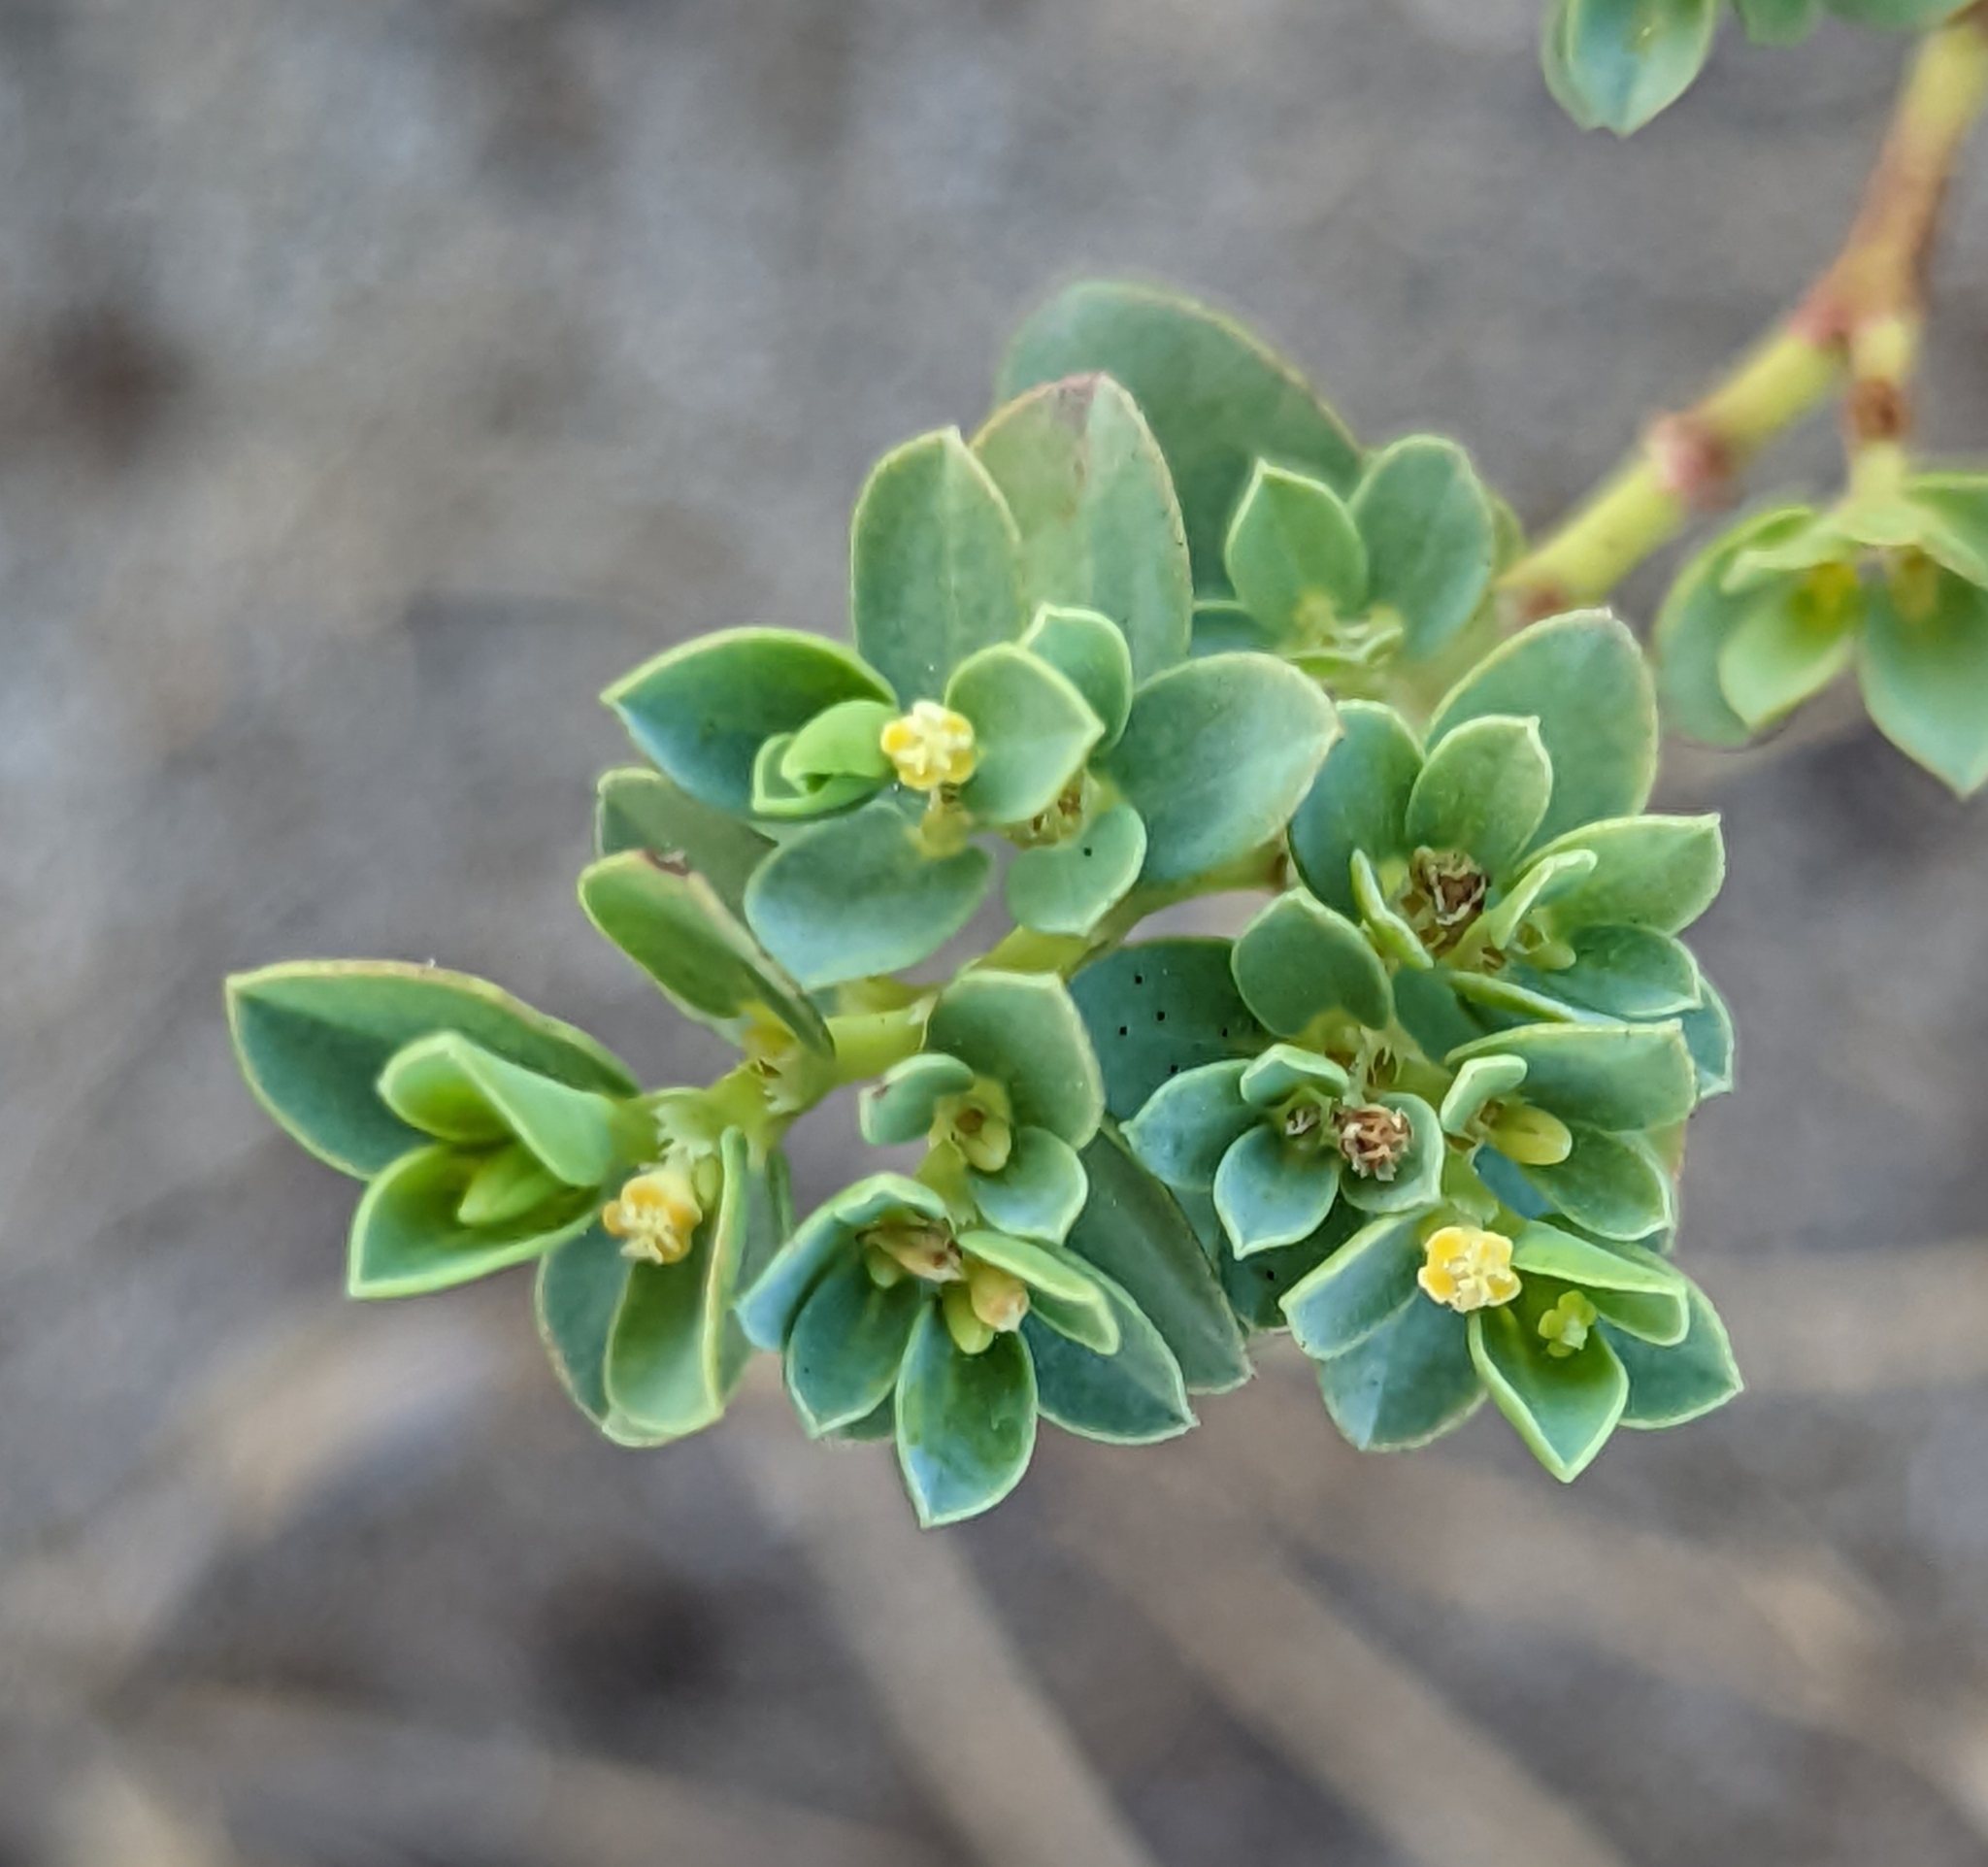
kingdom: Plantae
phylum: Tracheophyta
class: Magnoliopsida
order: Malpighiales
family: Euphorbiaceae
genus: Euphorbia
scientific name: Euphorbia mesembryanthemifolia
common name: Coastal beach sandmat
